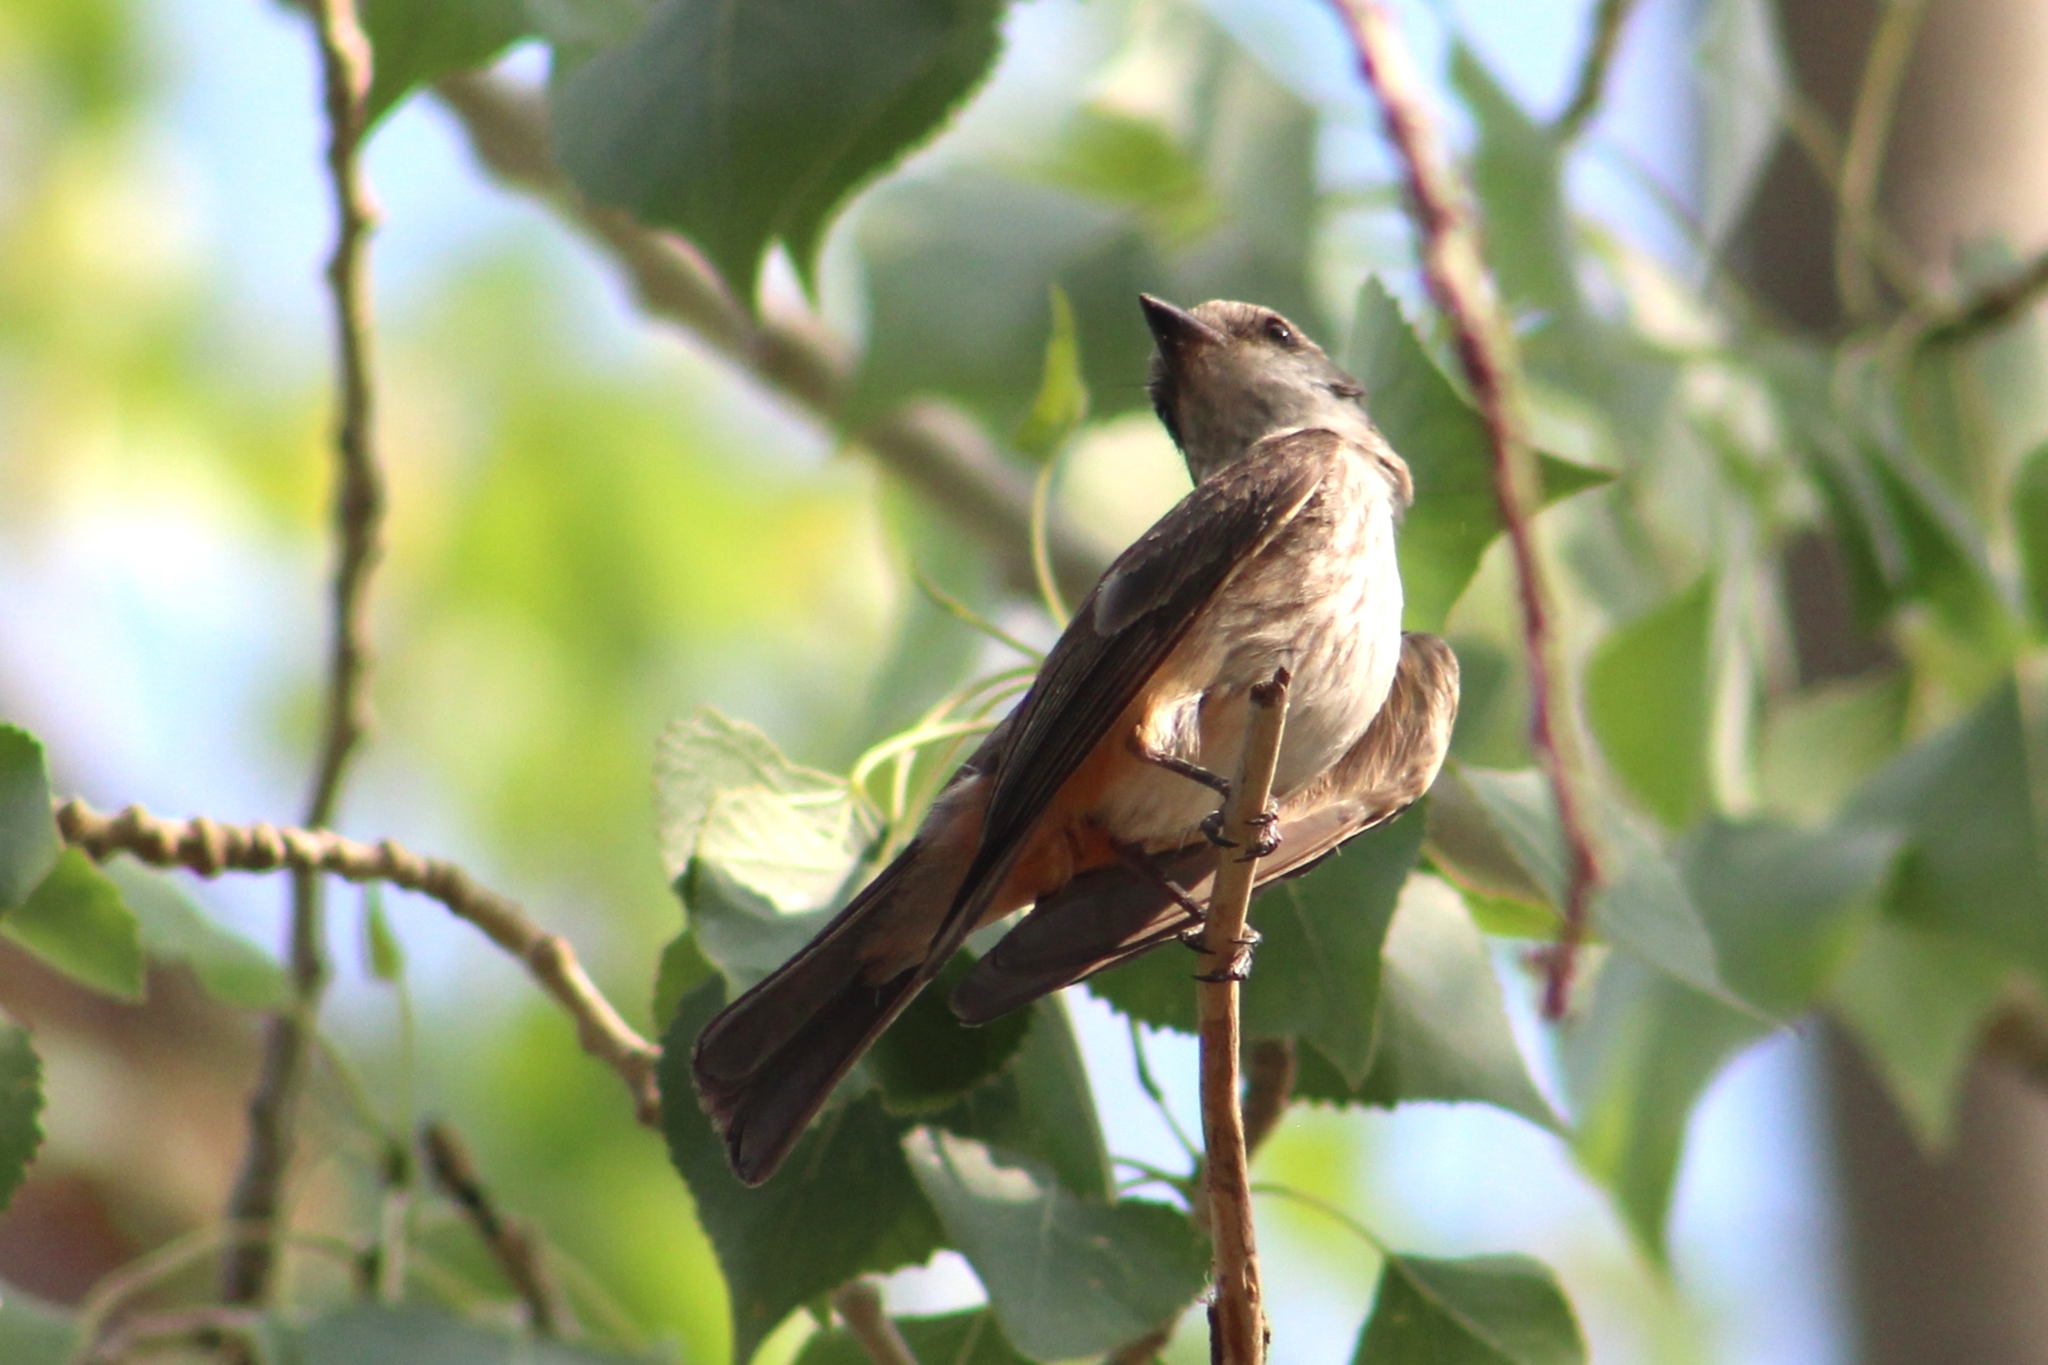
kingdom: Animalia
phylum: Chordata
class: Aves
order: Passeriformes
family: Tyrannidae
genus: Pyrocephalus
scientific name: Pyrocephalus rubinus
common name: Vermilion flycatcher
